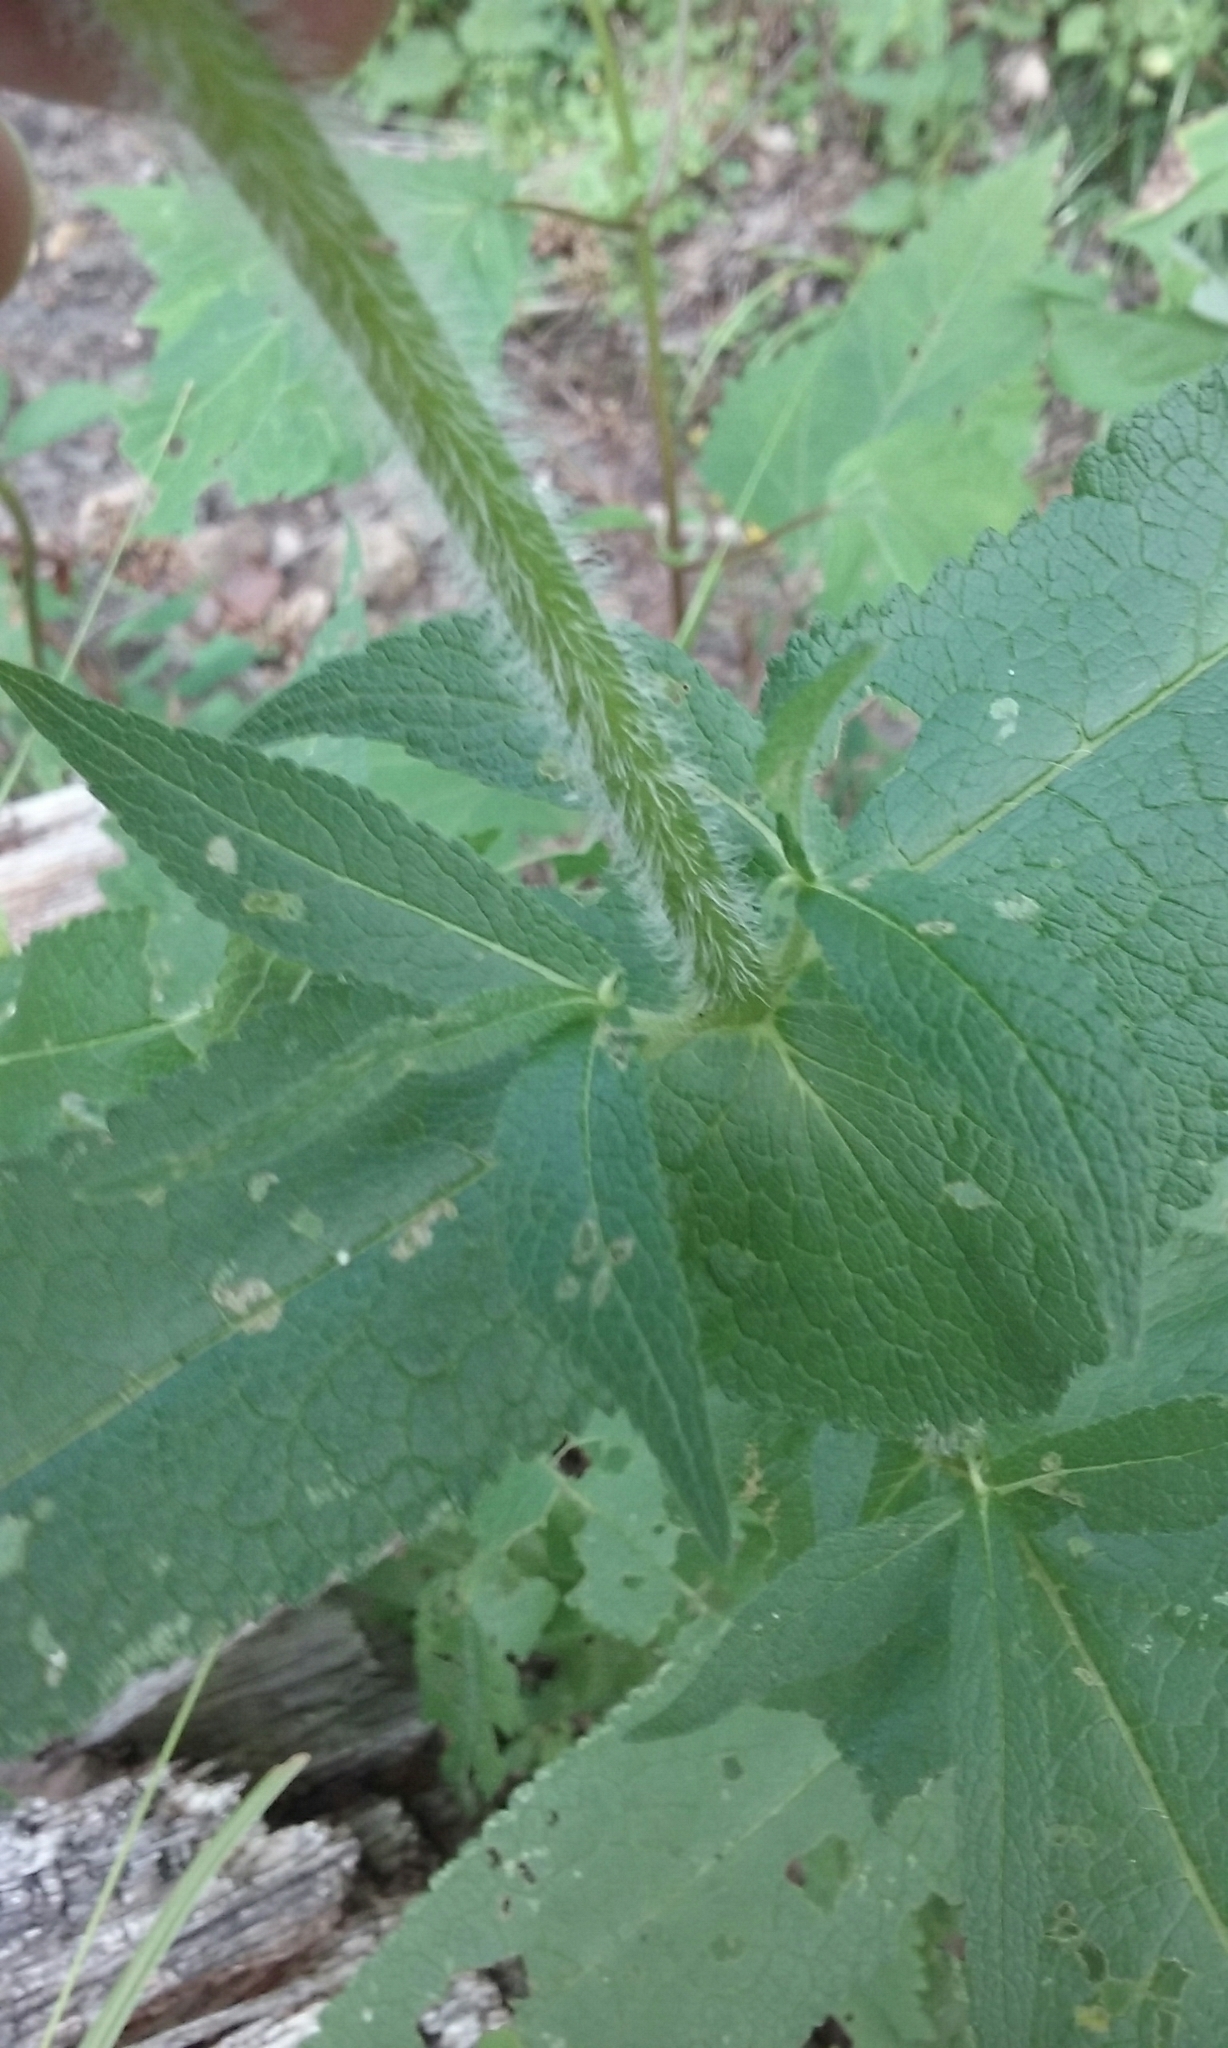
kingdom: Plantae
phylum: Tracheophyta
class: Magnoliopsida
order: Asterales
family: Asteraceae
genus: Eupatorium
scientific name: Eupatorium perfoliatum
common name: Boneset
